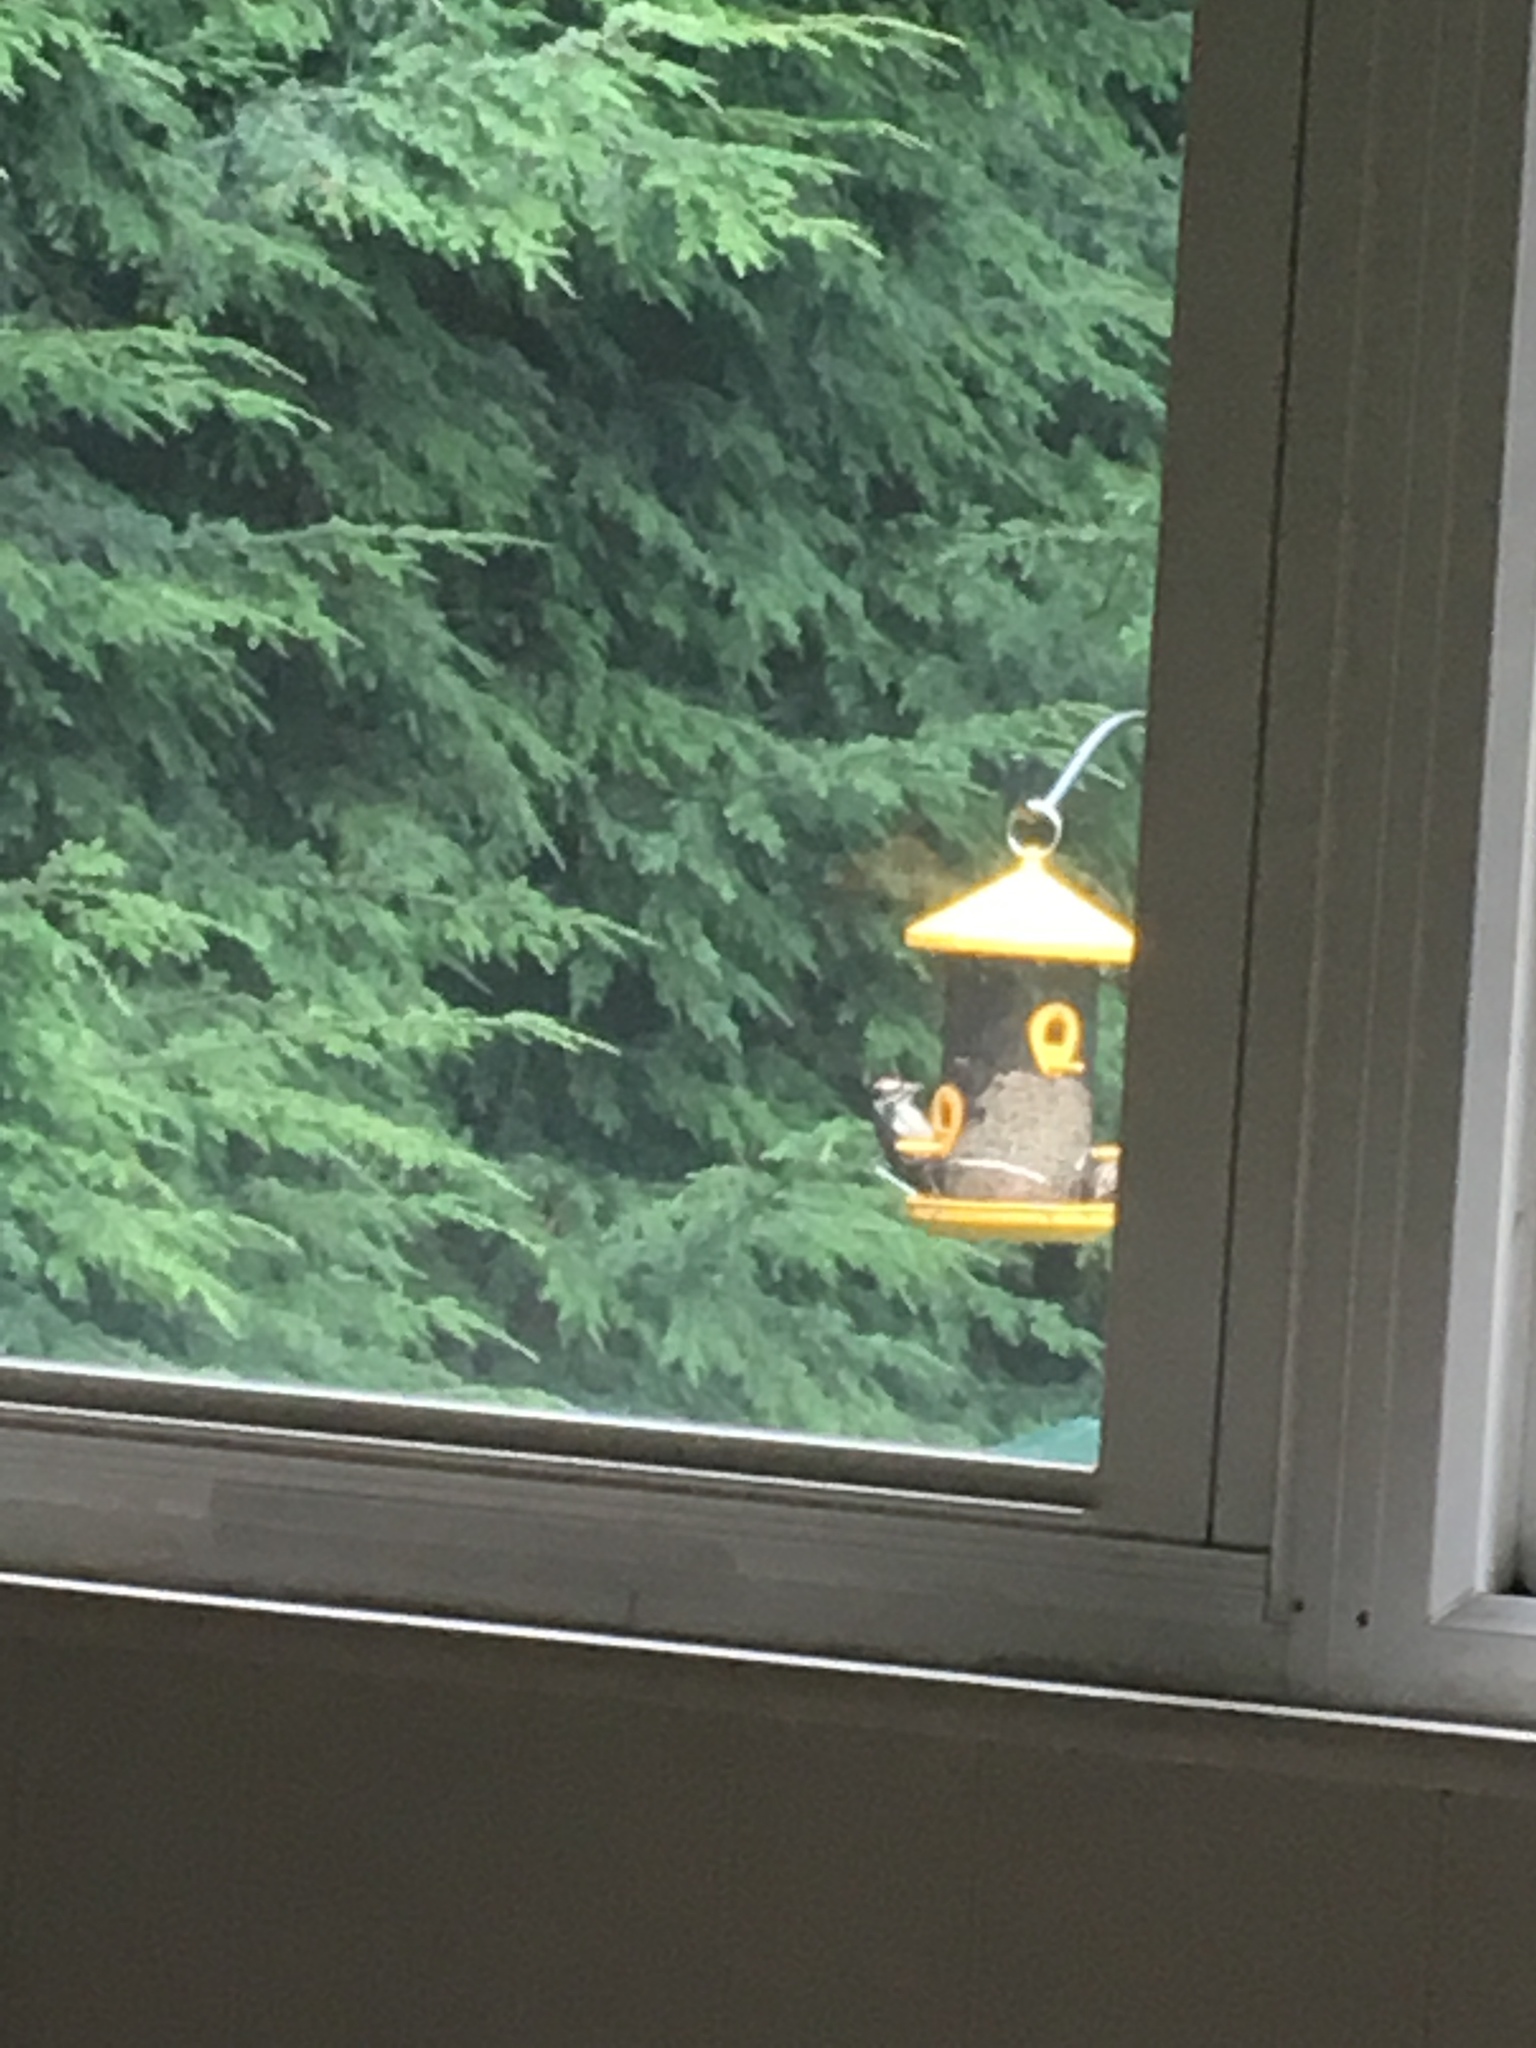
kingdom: Animalia
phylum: Chordata
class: Aves
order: Piciformes
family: Picidae
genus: Dryobates
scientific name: Dryobates pubescens
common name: Downy woodpecker
